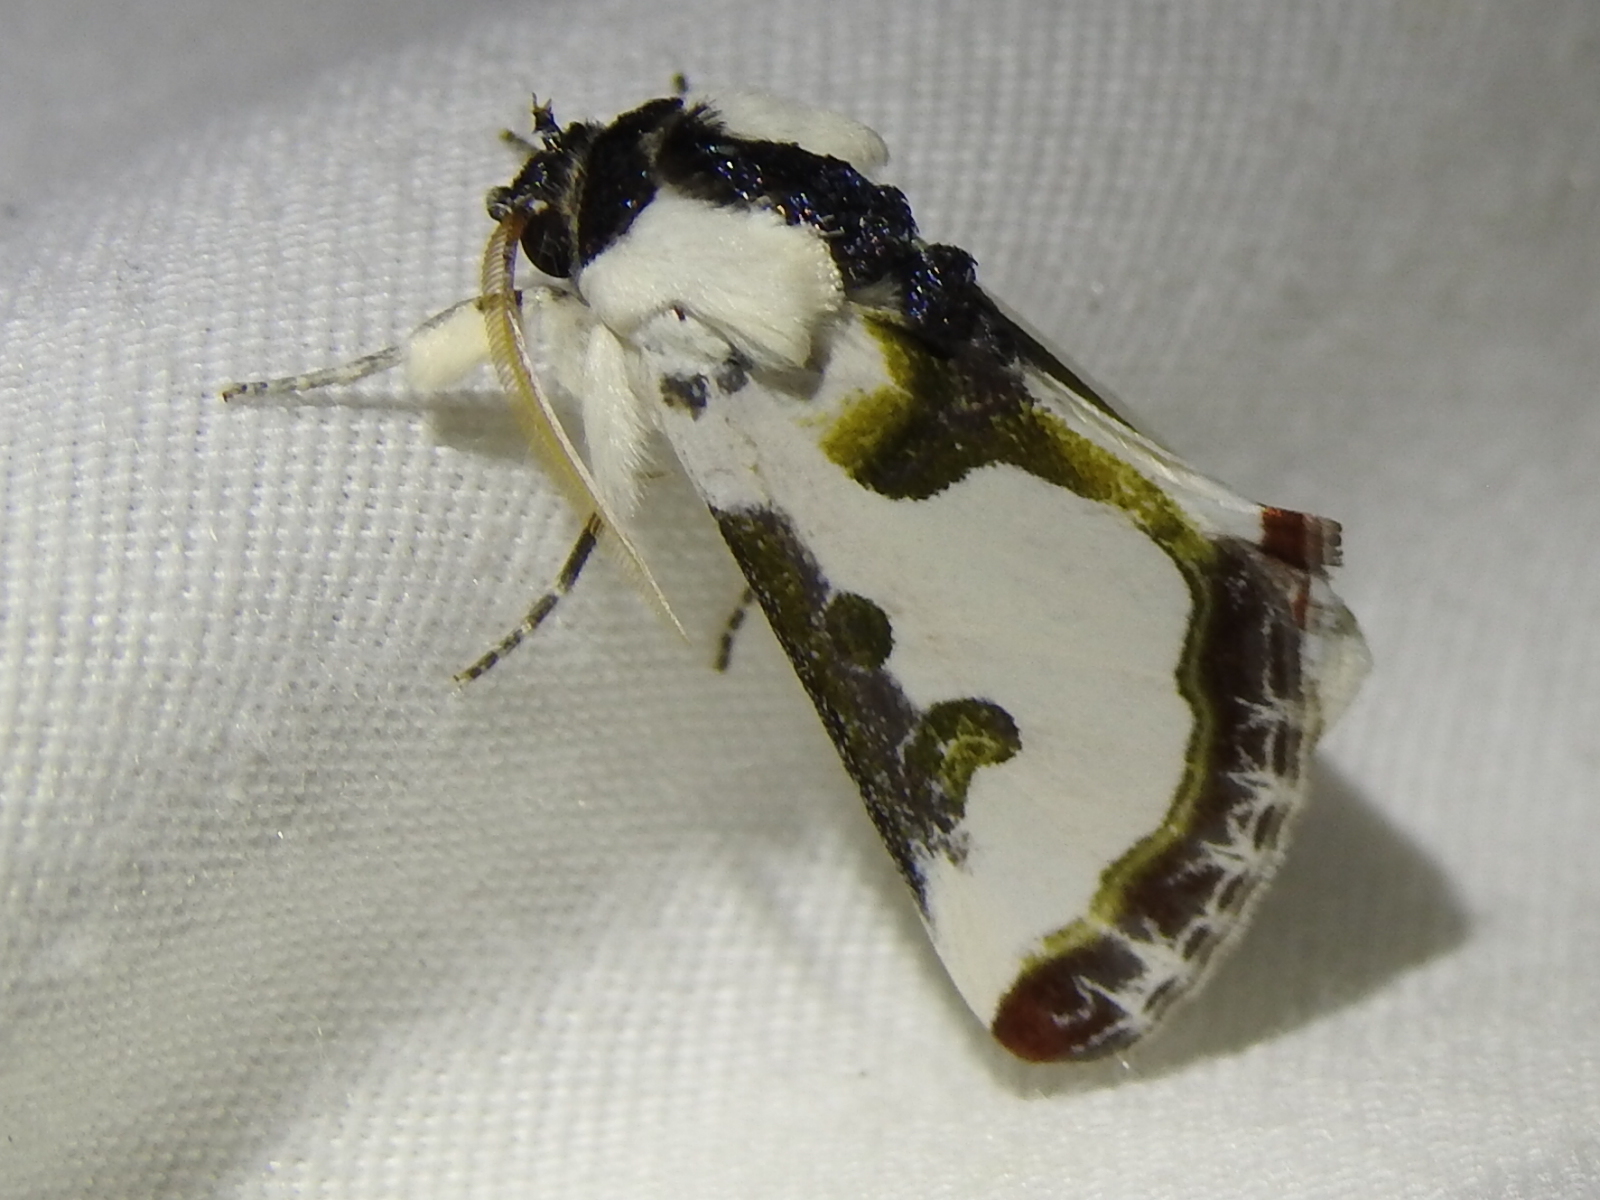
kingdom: Animalia
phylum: Arthropoda
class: Insecta
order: Lepidoptera
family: Noctuidae
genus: Xerociris
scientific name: Xerociris wilsonii
